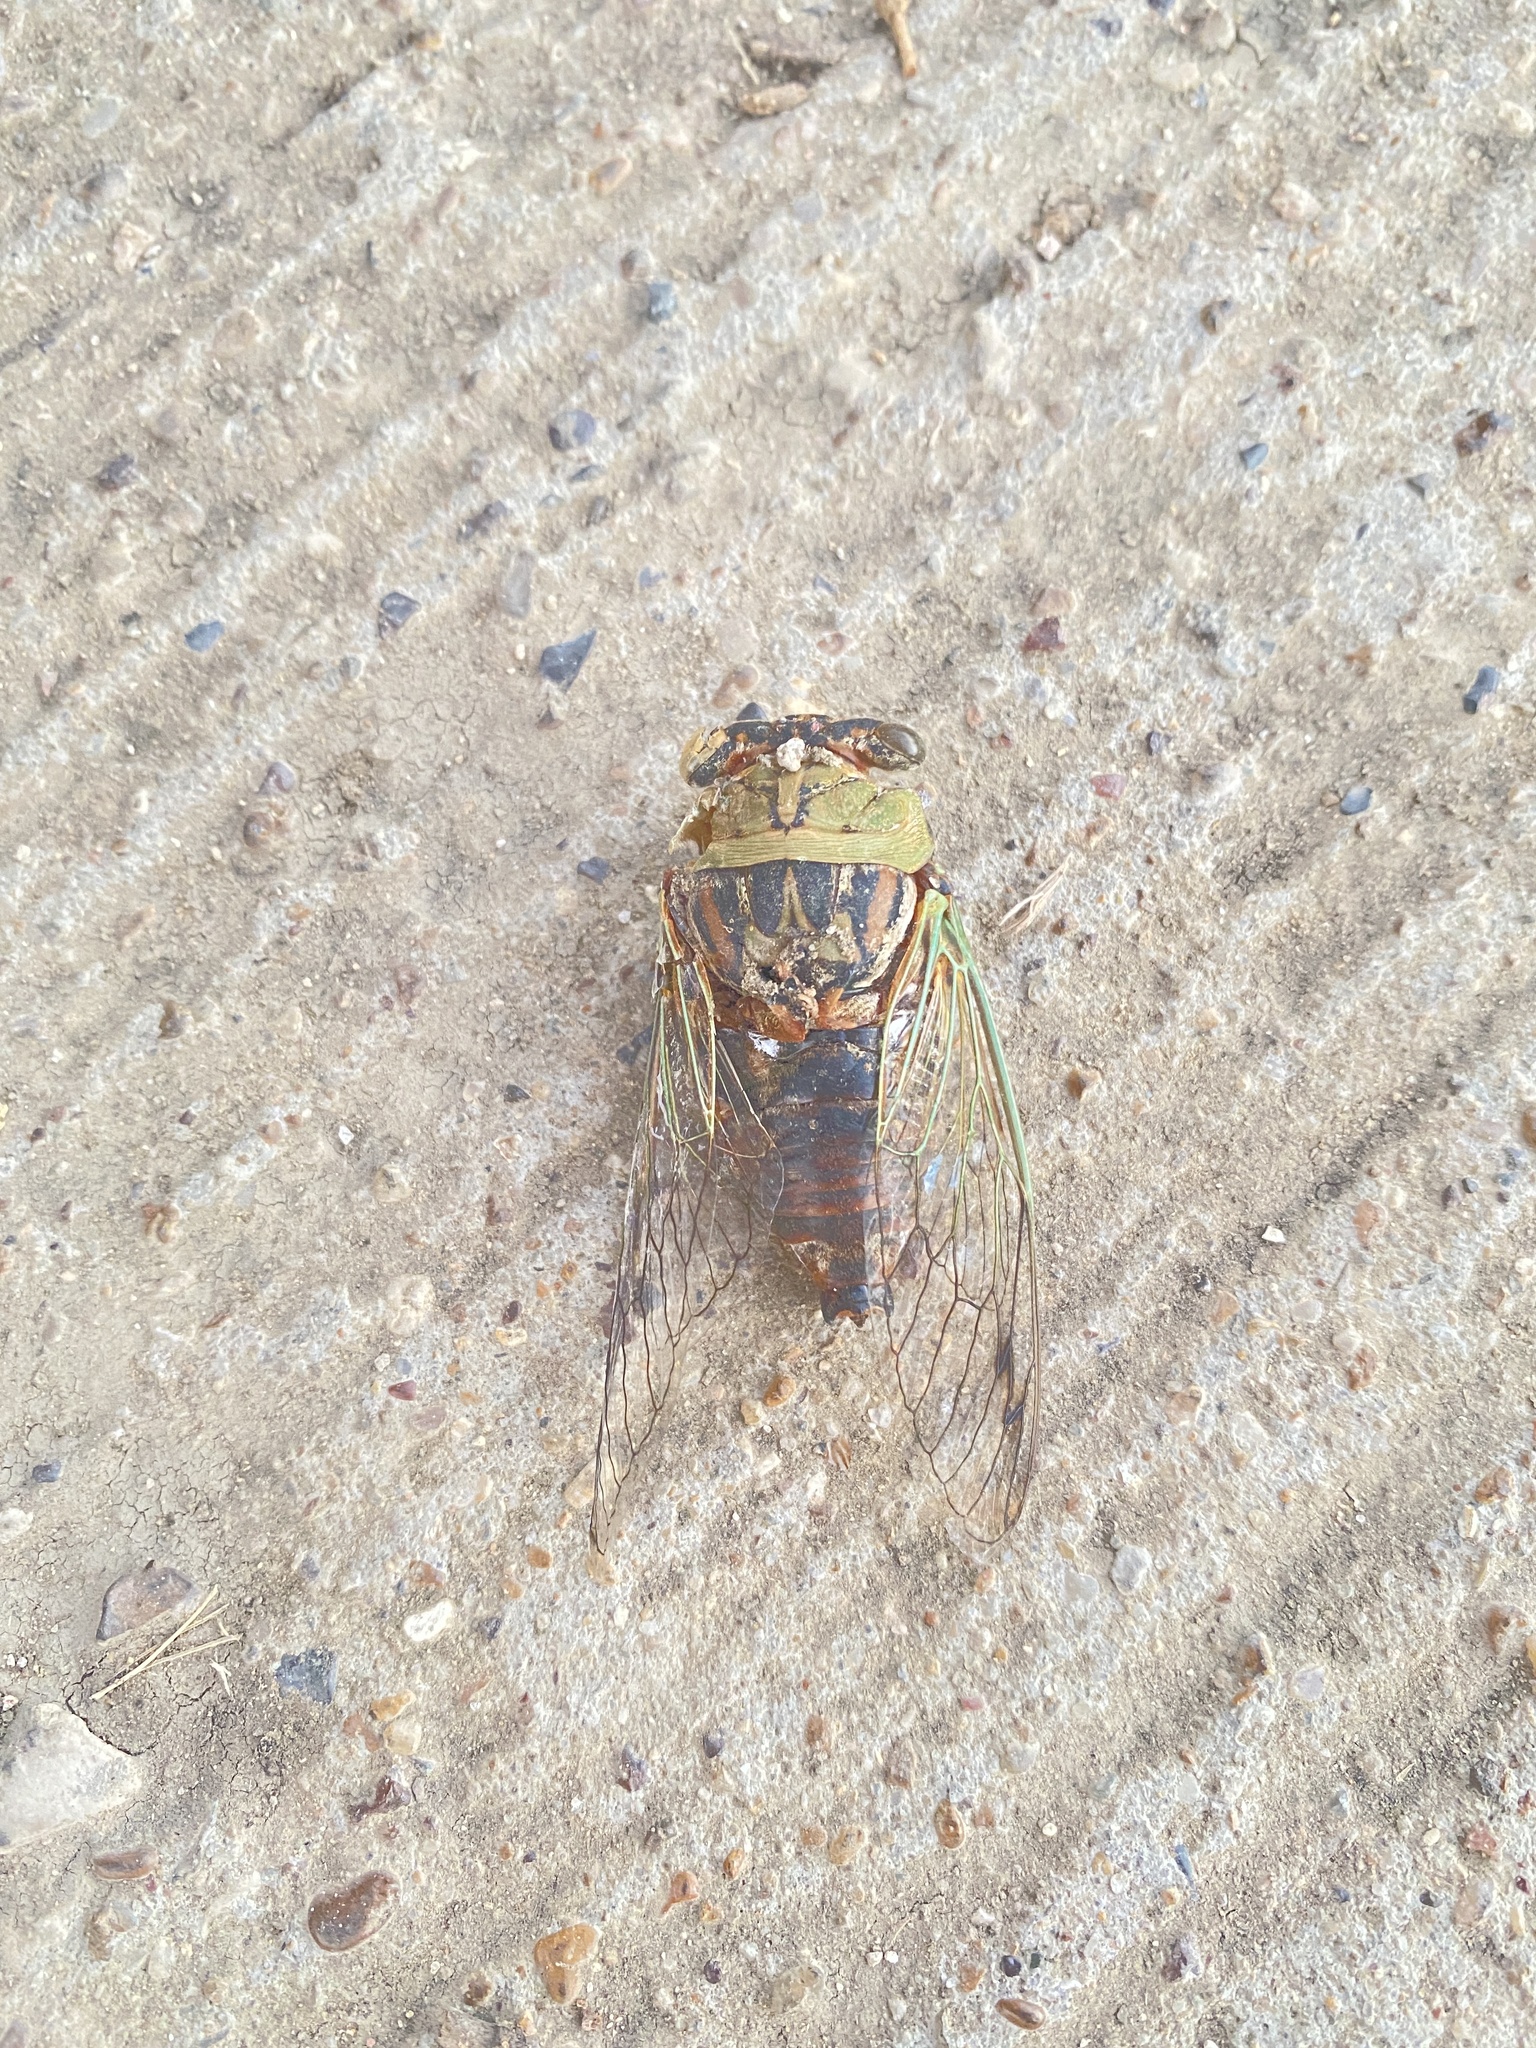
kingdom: Animalia
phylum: Arthropoda
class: Insecta
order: Hemiptera
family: Cicadidae
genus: Megatibicen
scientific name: Megatibicen resh
